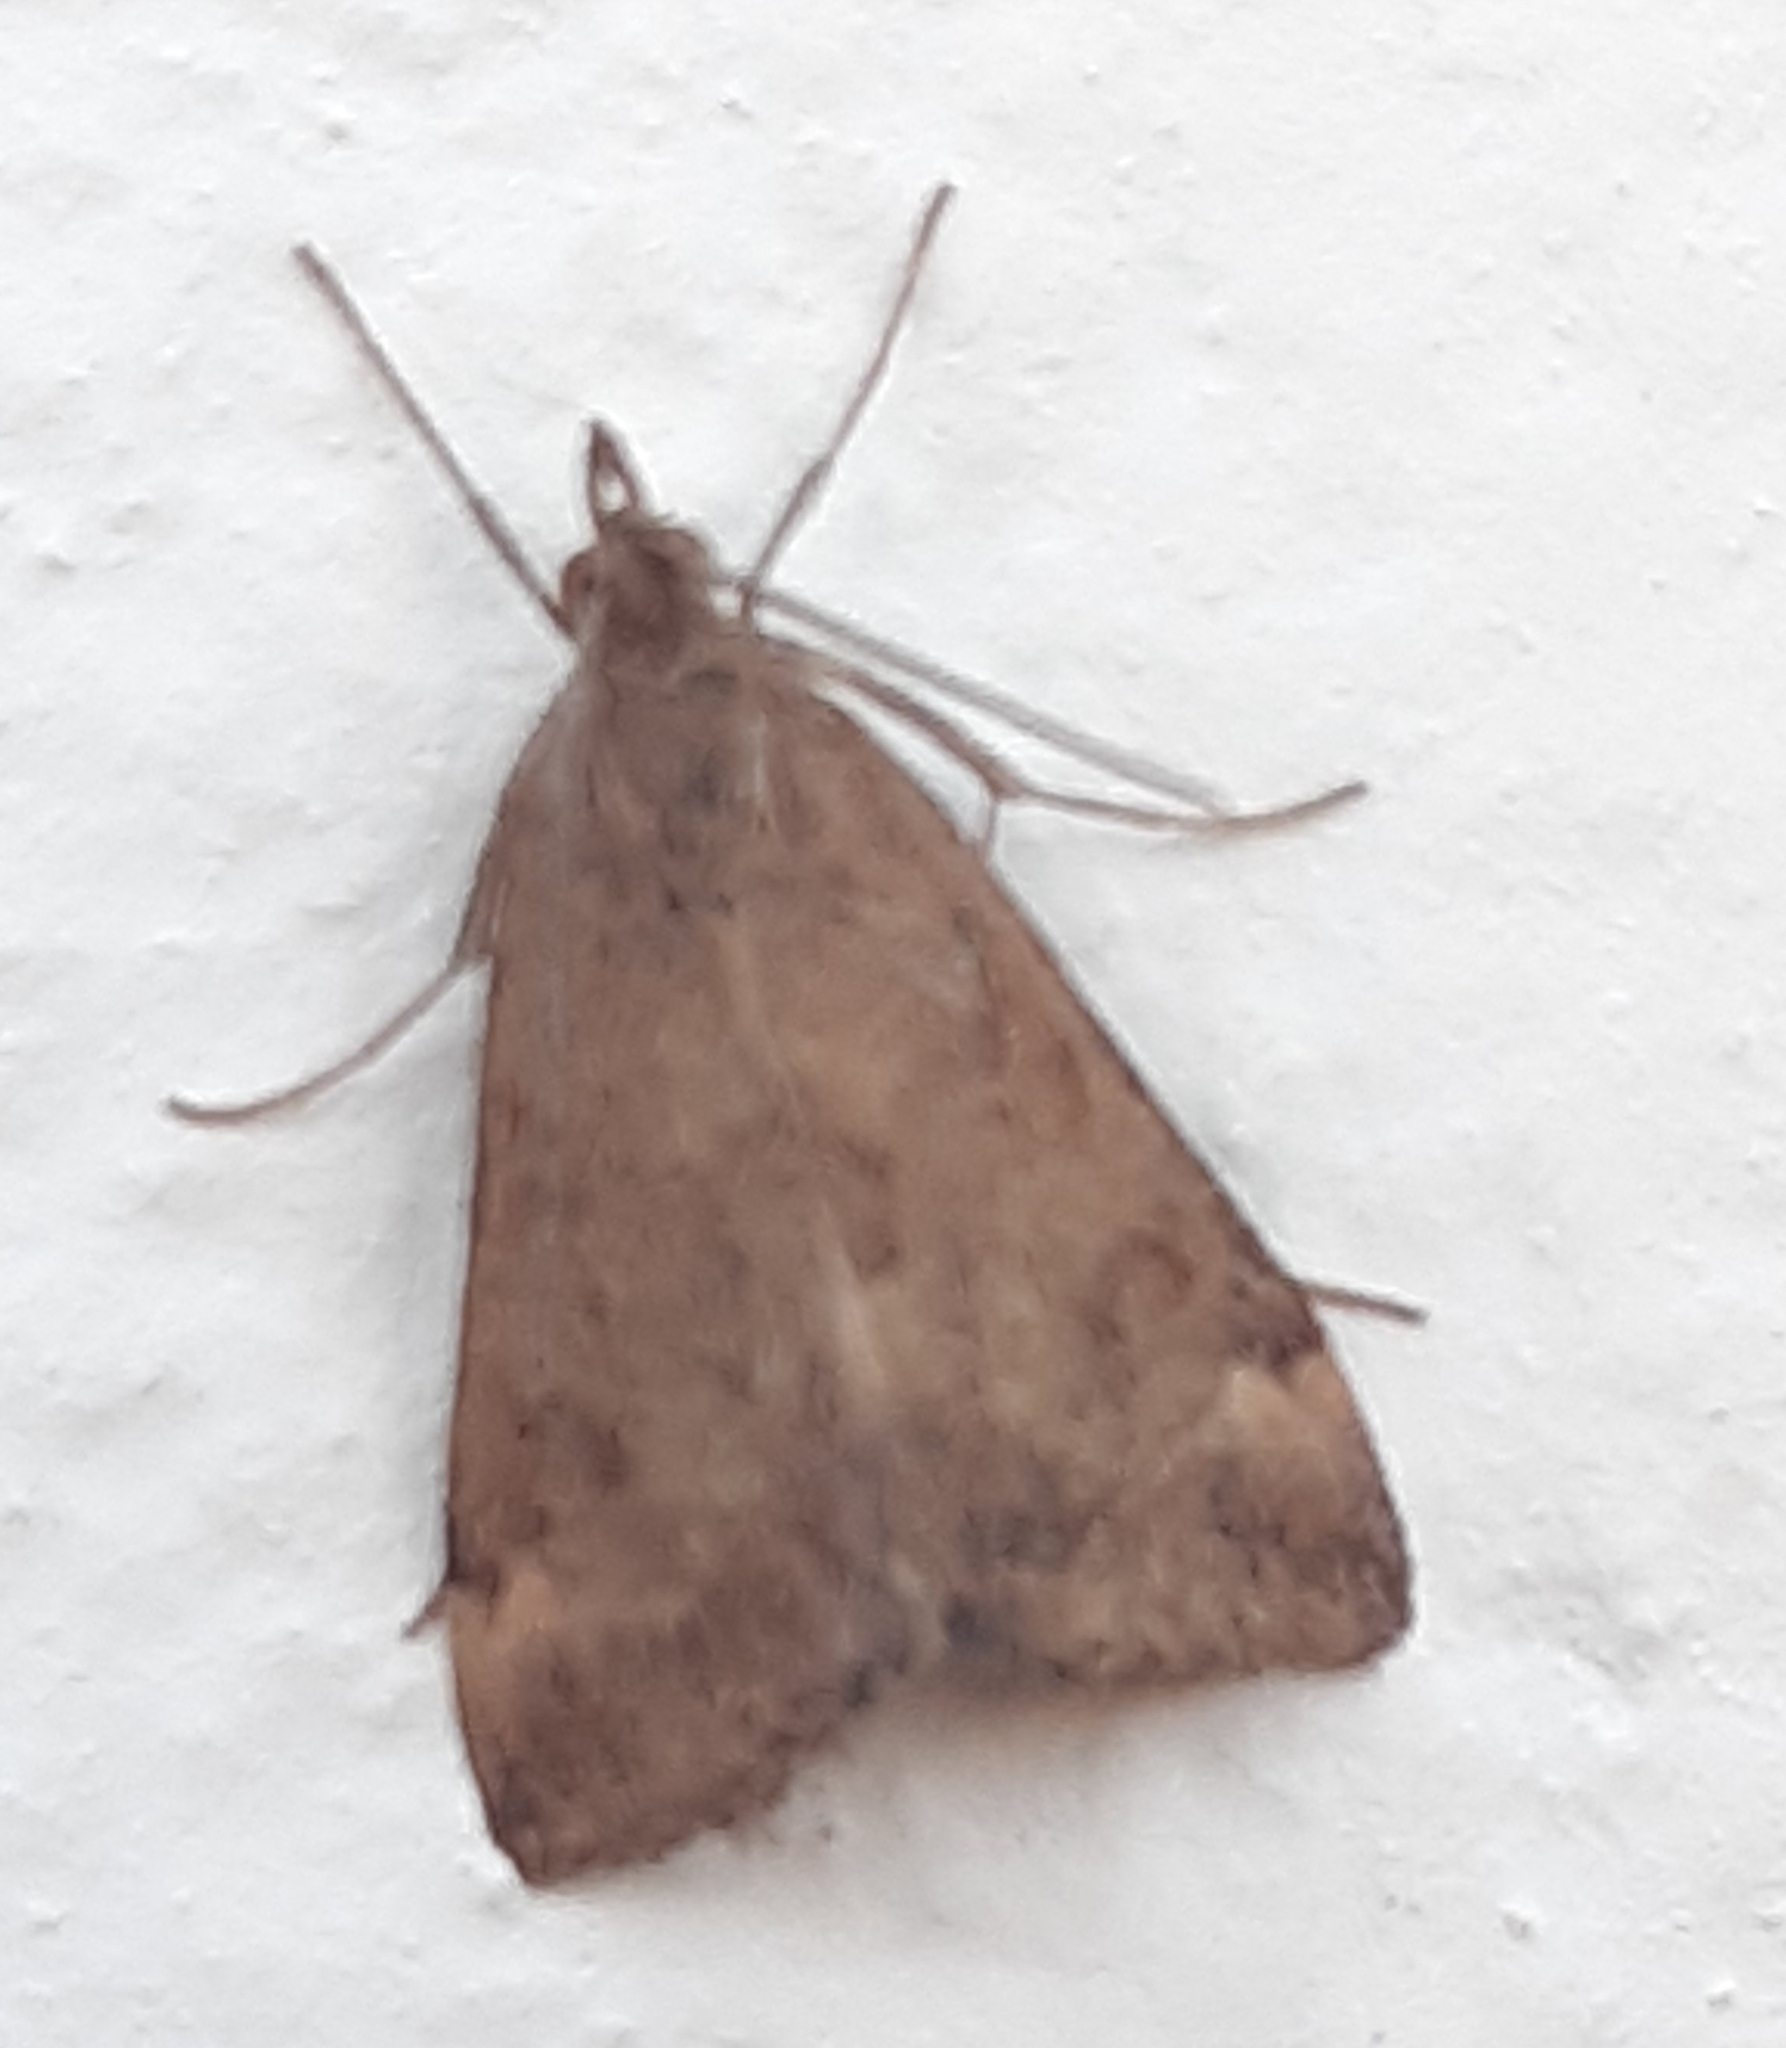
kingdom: Animalia
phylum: Arthropoda
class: Insecta
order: Lepidoptera
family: Crambidae
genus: Pyrausta
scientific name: Pyrausta despicata
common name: Straw-barred pearl
